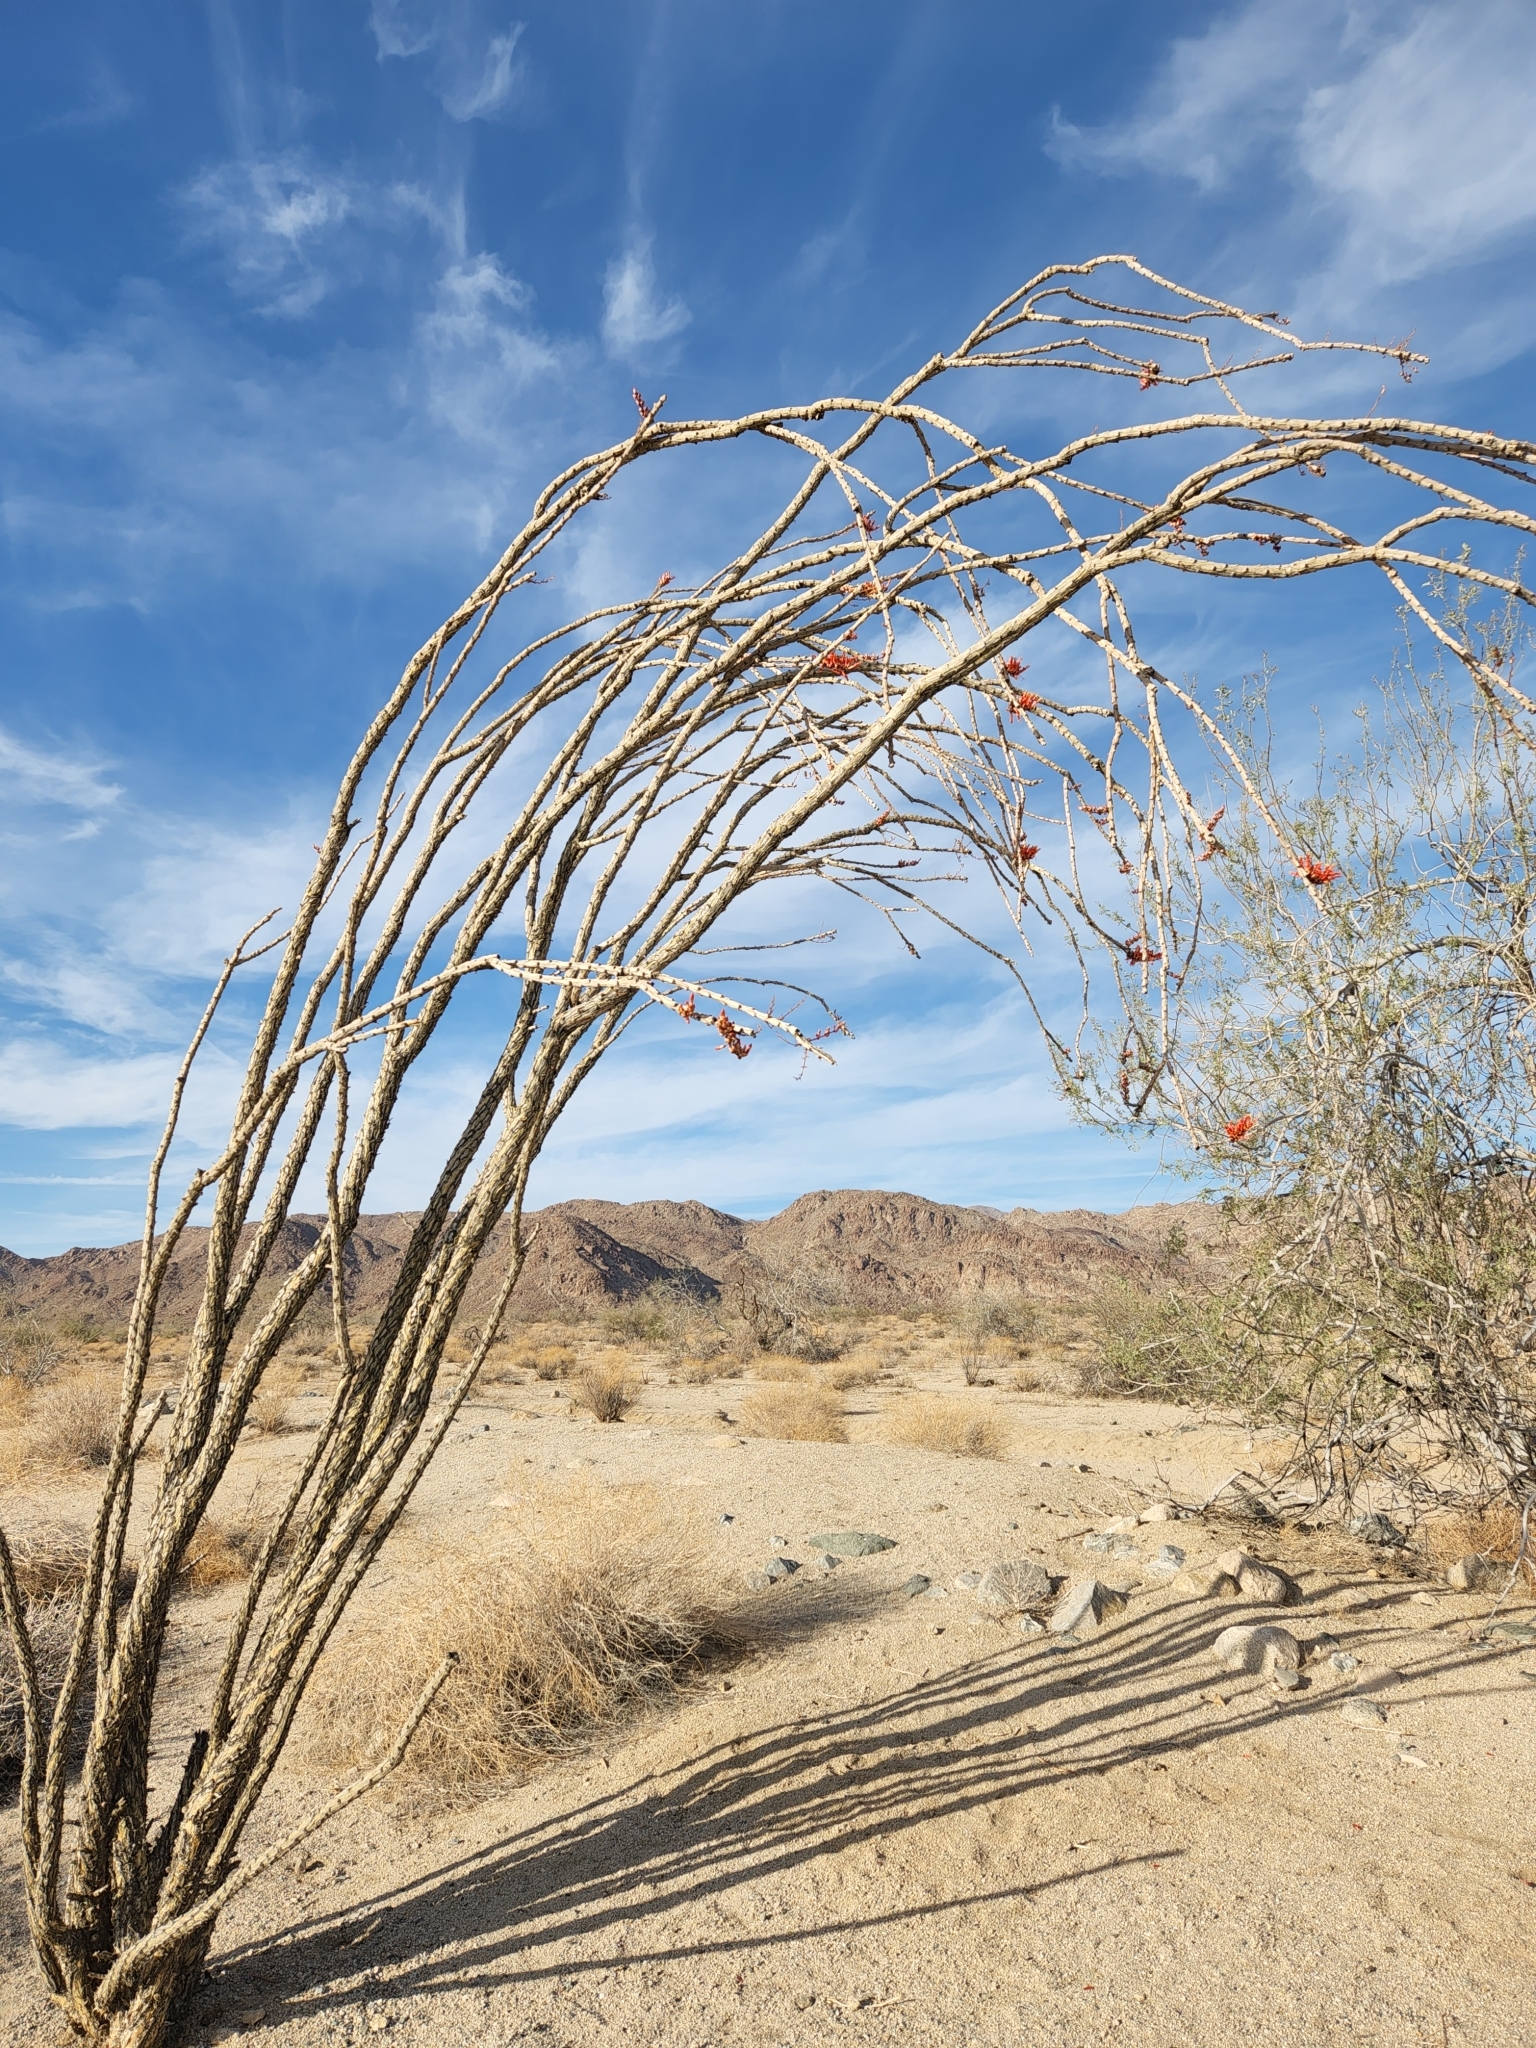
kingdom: Plantae
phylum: Tracheophyta
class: Magnoliopsida
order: Ericales
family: Fouquieriaceae
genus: Fouquieria
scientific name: Fouquieria splendens
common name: Vine-cactus
